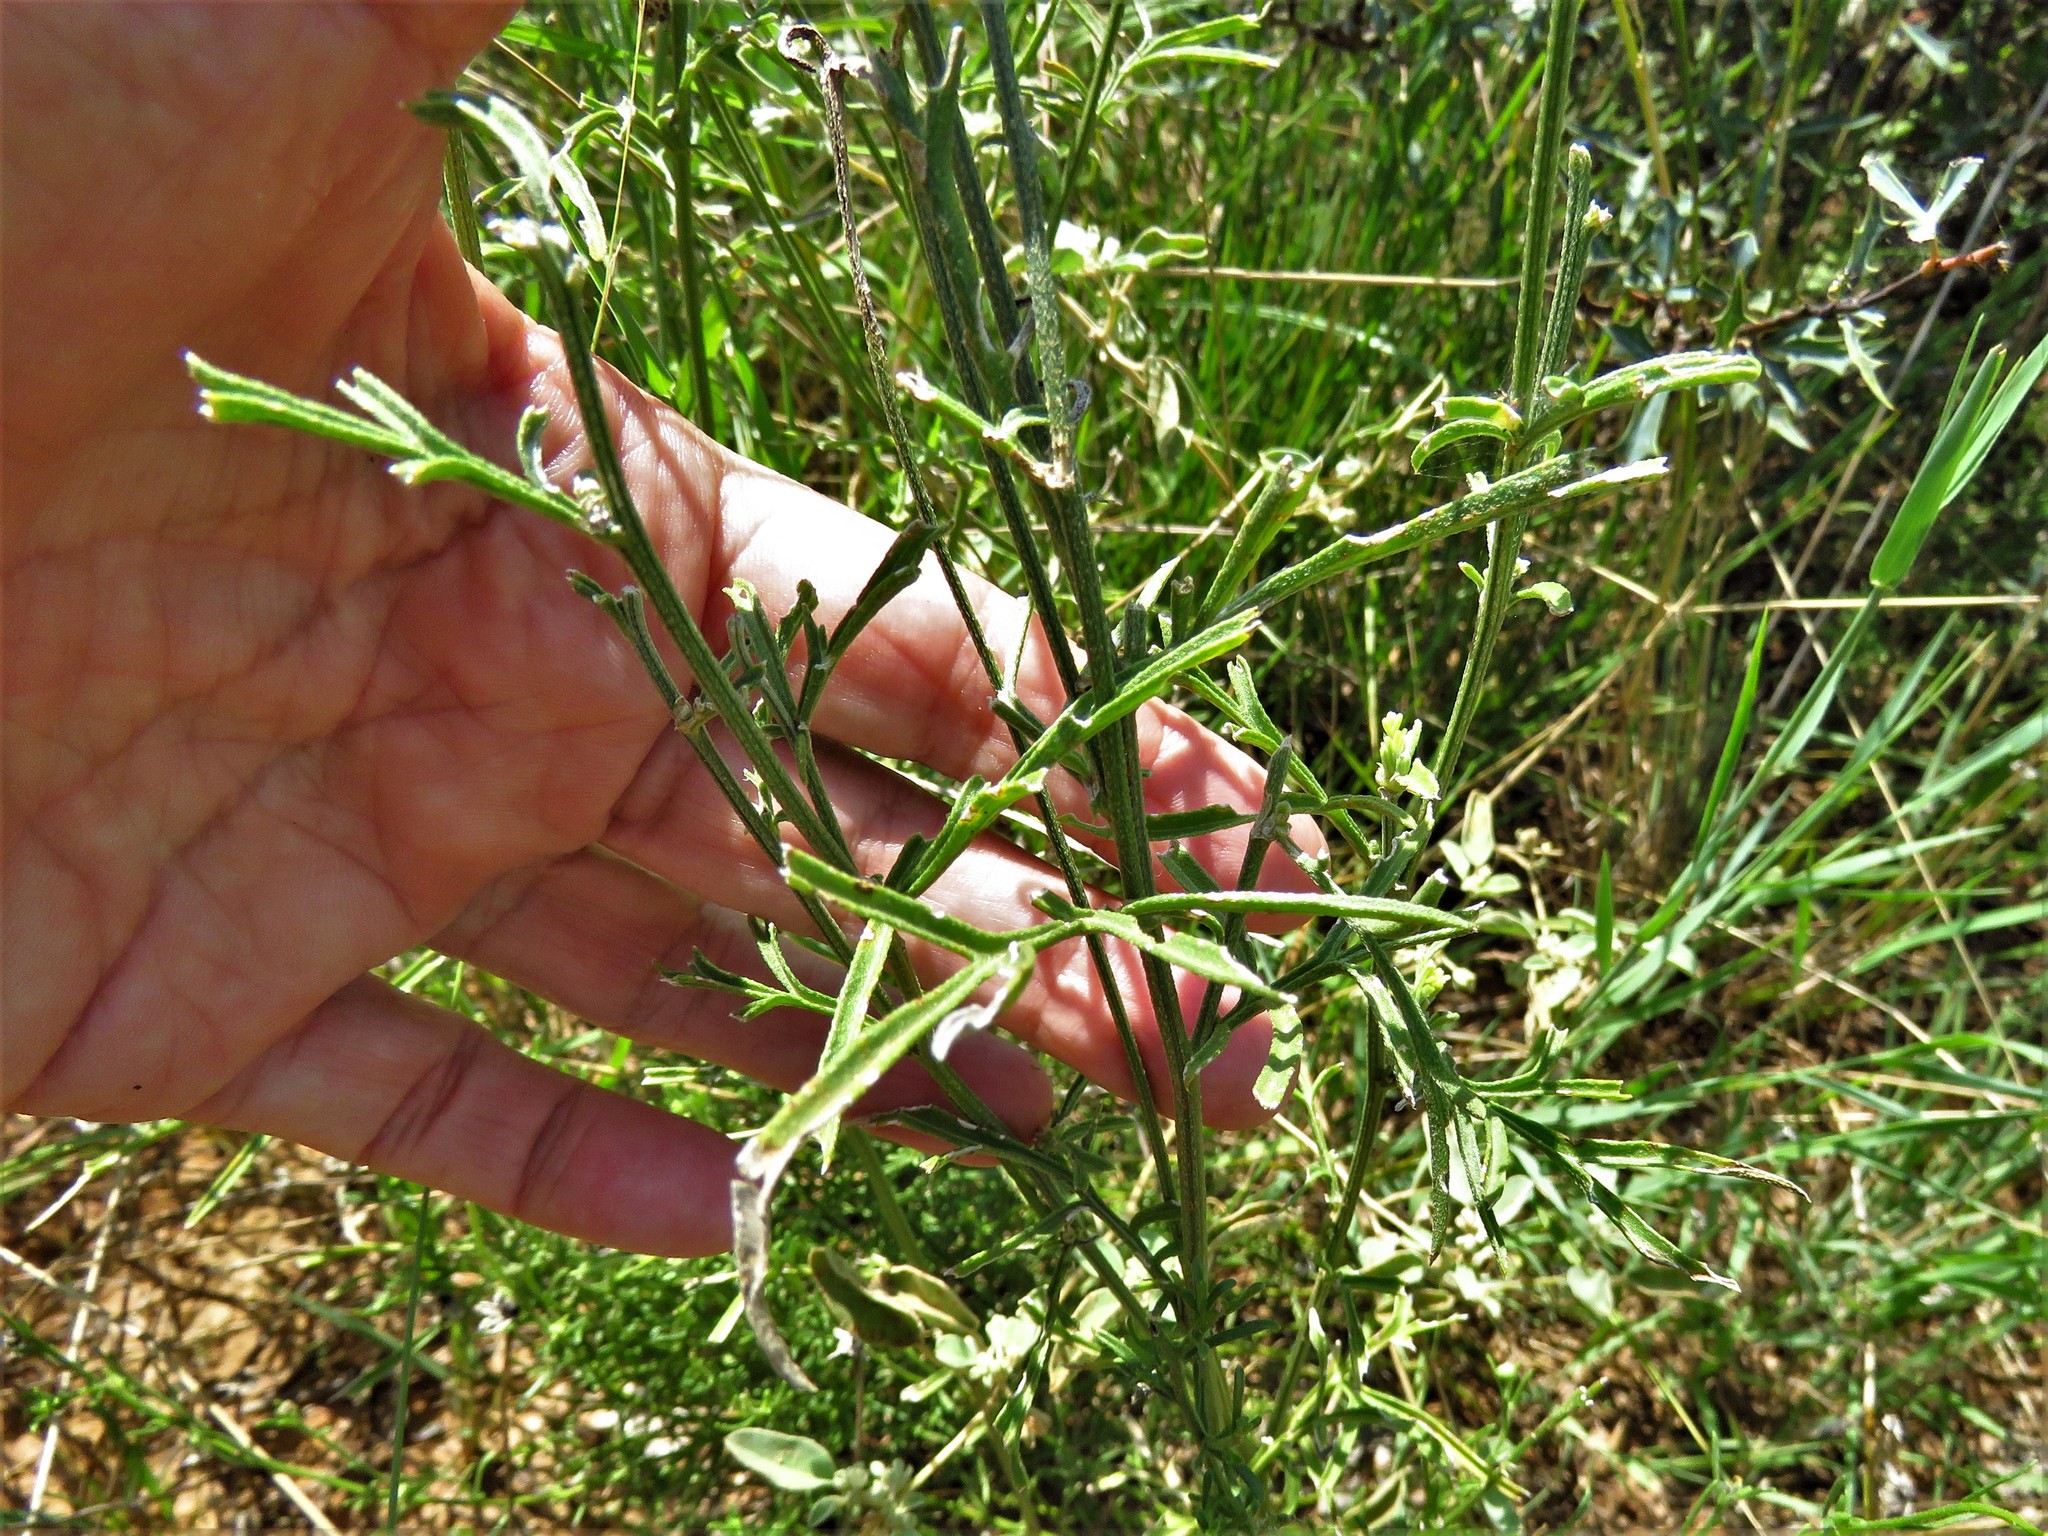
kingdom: Plantae
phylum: Tracheophyta
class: Magnoliopsida
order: Asterales
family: Asteraceae
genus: Ratibida
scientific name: Ratibida columnifera
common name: Prairie coneflower
